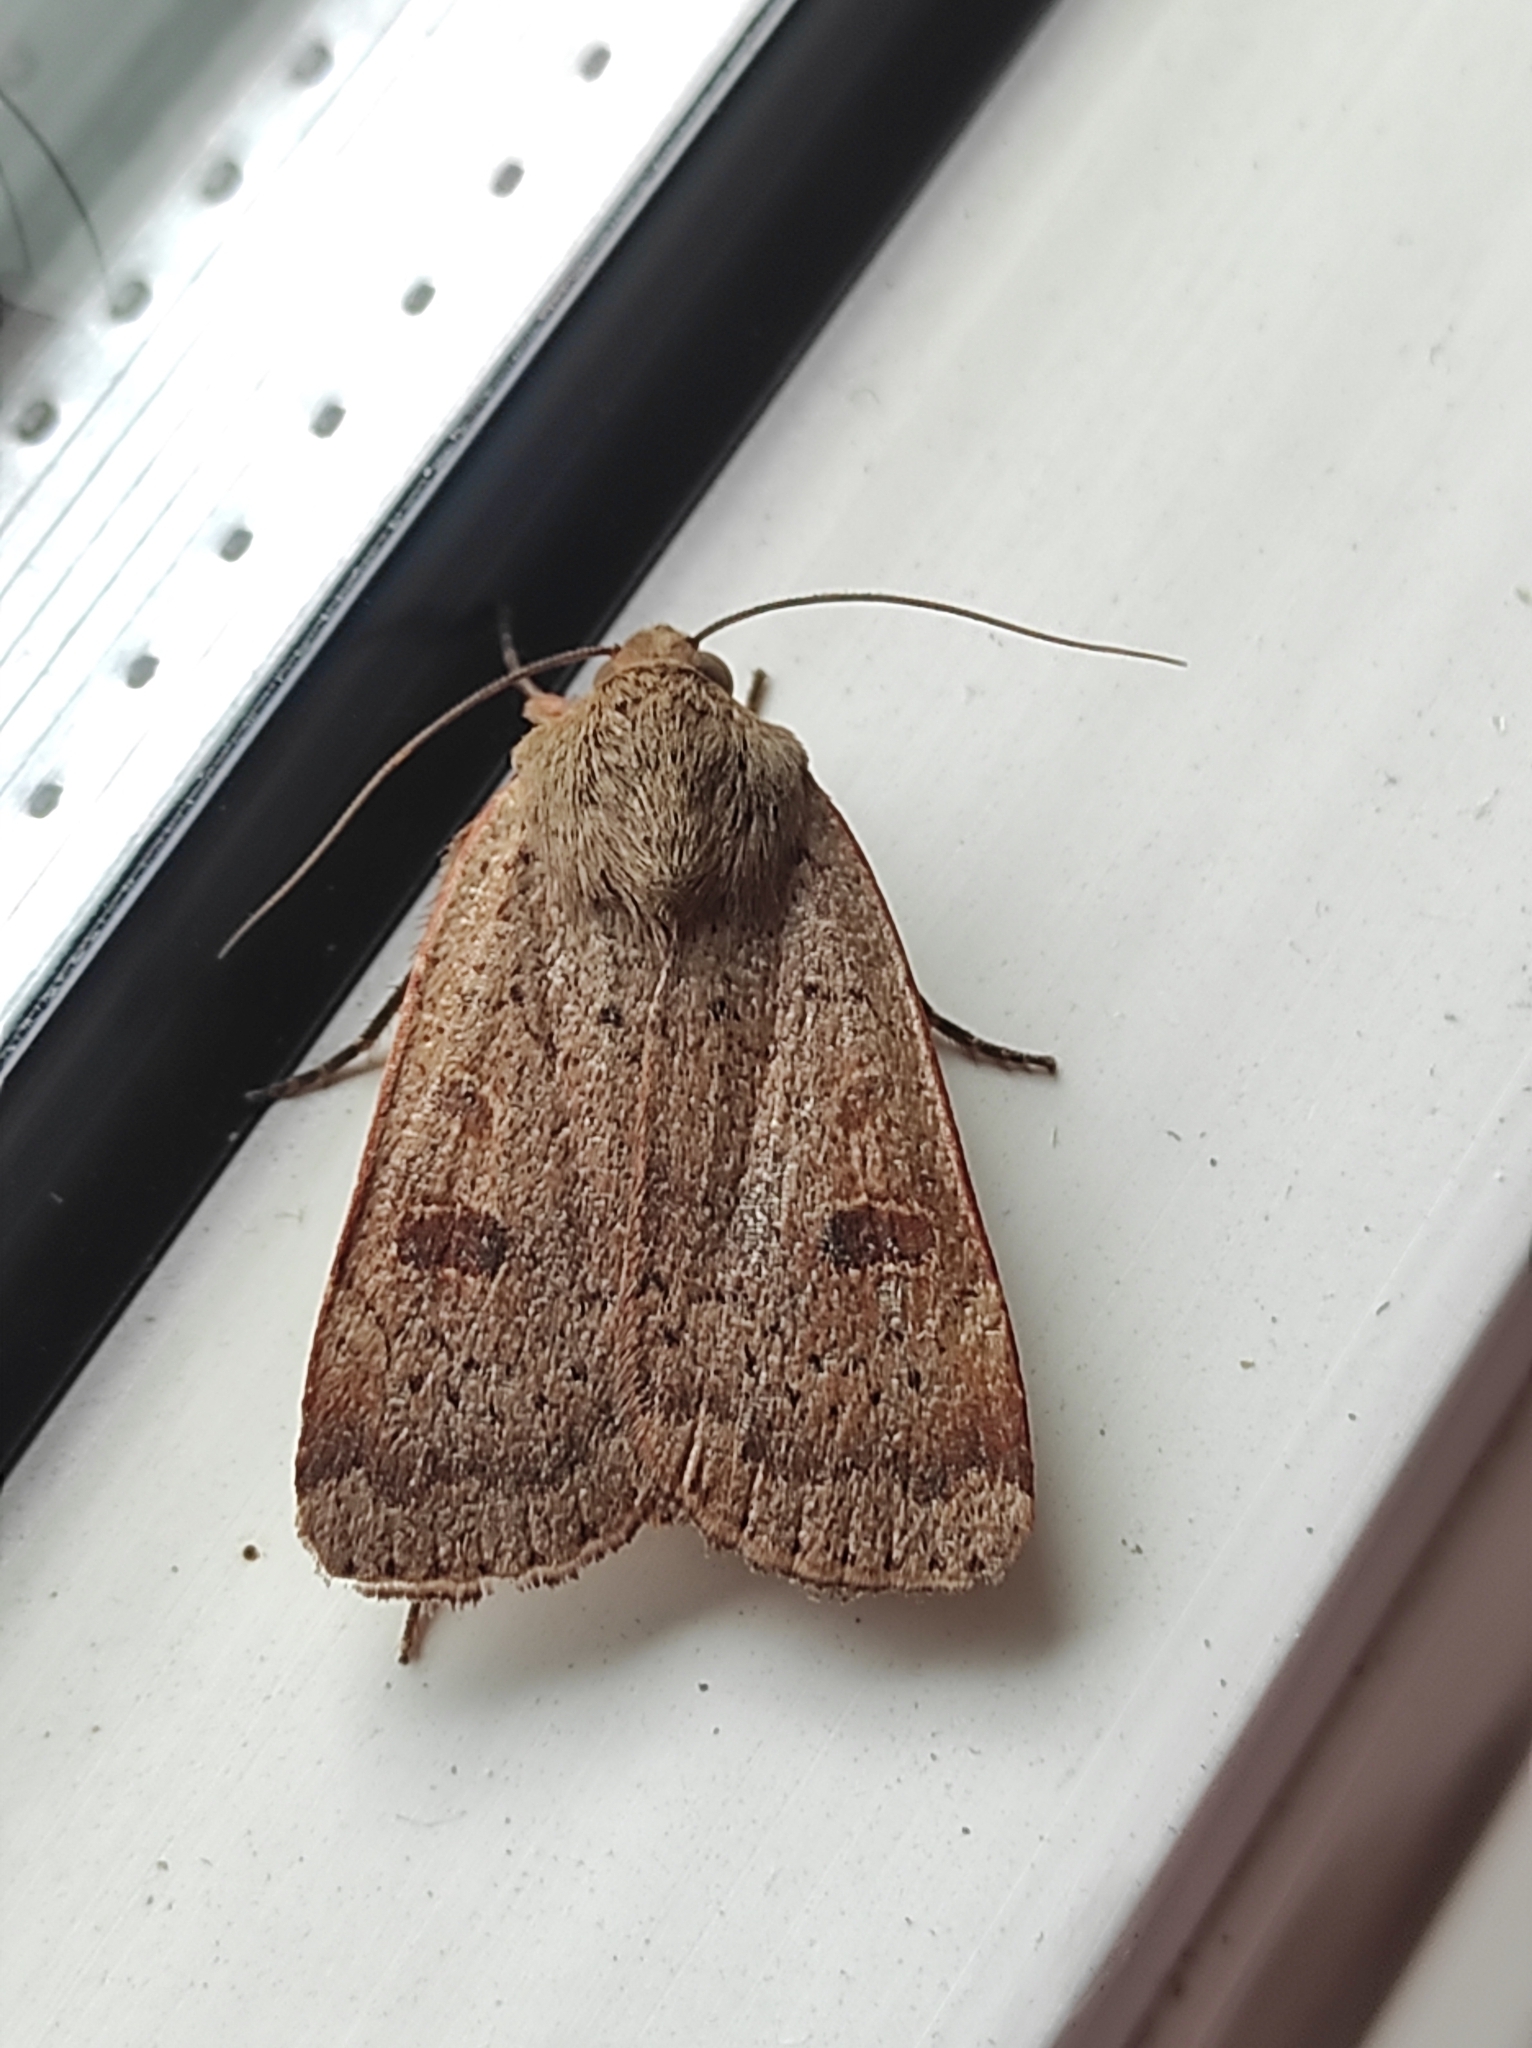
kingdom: Animalia
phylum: Arthropoda
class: Insecta
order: Lepidoptera
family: Noctuidae
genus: Noctua
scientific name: Noctua comes
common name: Lesser yellow underwing
